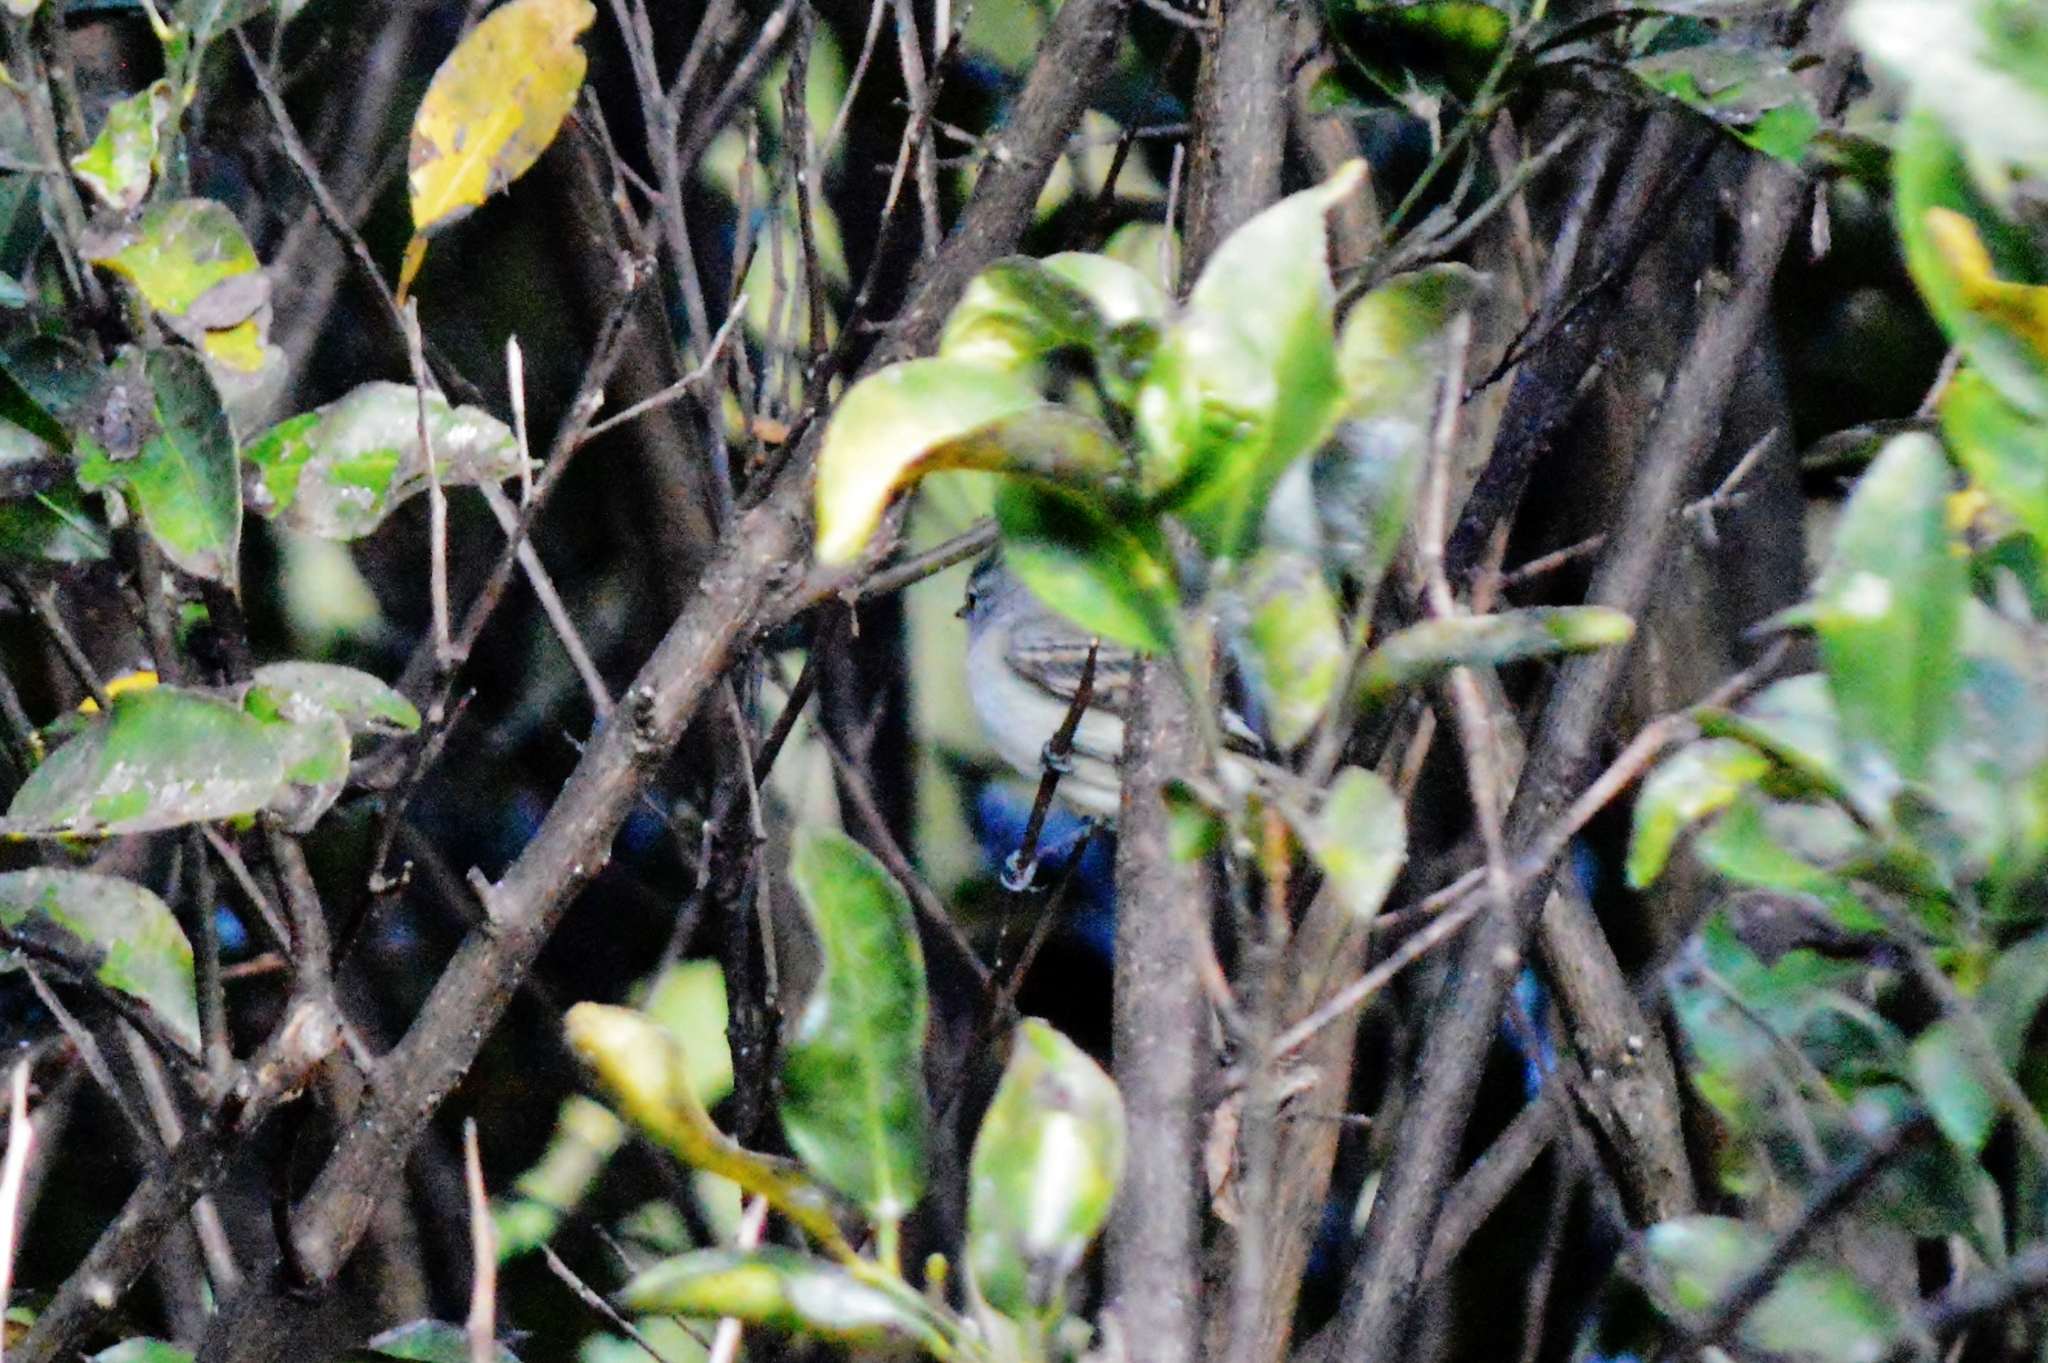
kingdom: Animalia
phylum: Chordata
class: Aves
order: Passeriformes
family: Tyrannidae
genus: Camptostoma
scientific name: Camptostoma obsoletum
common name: Southern beardless-tyrannulet
